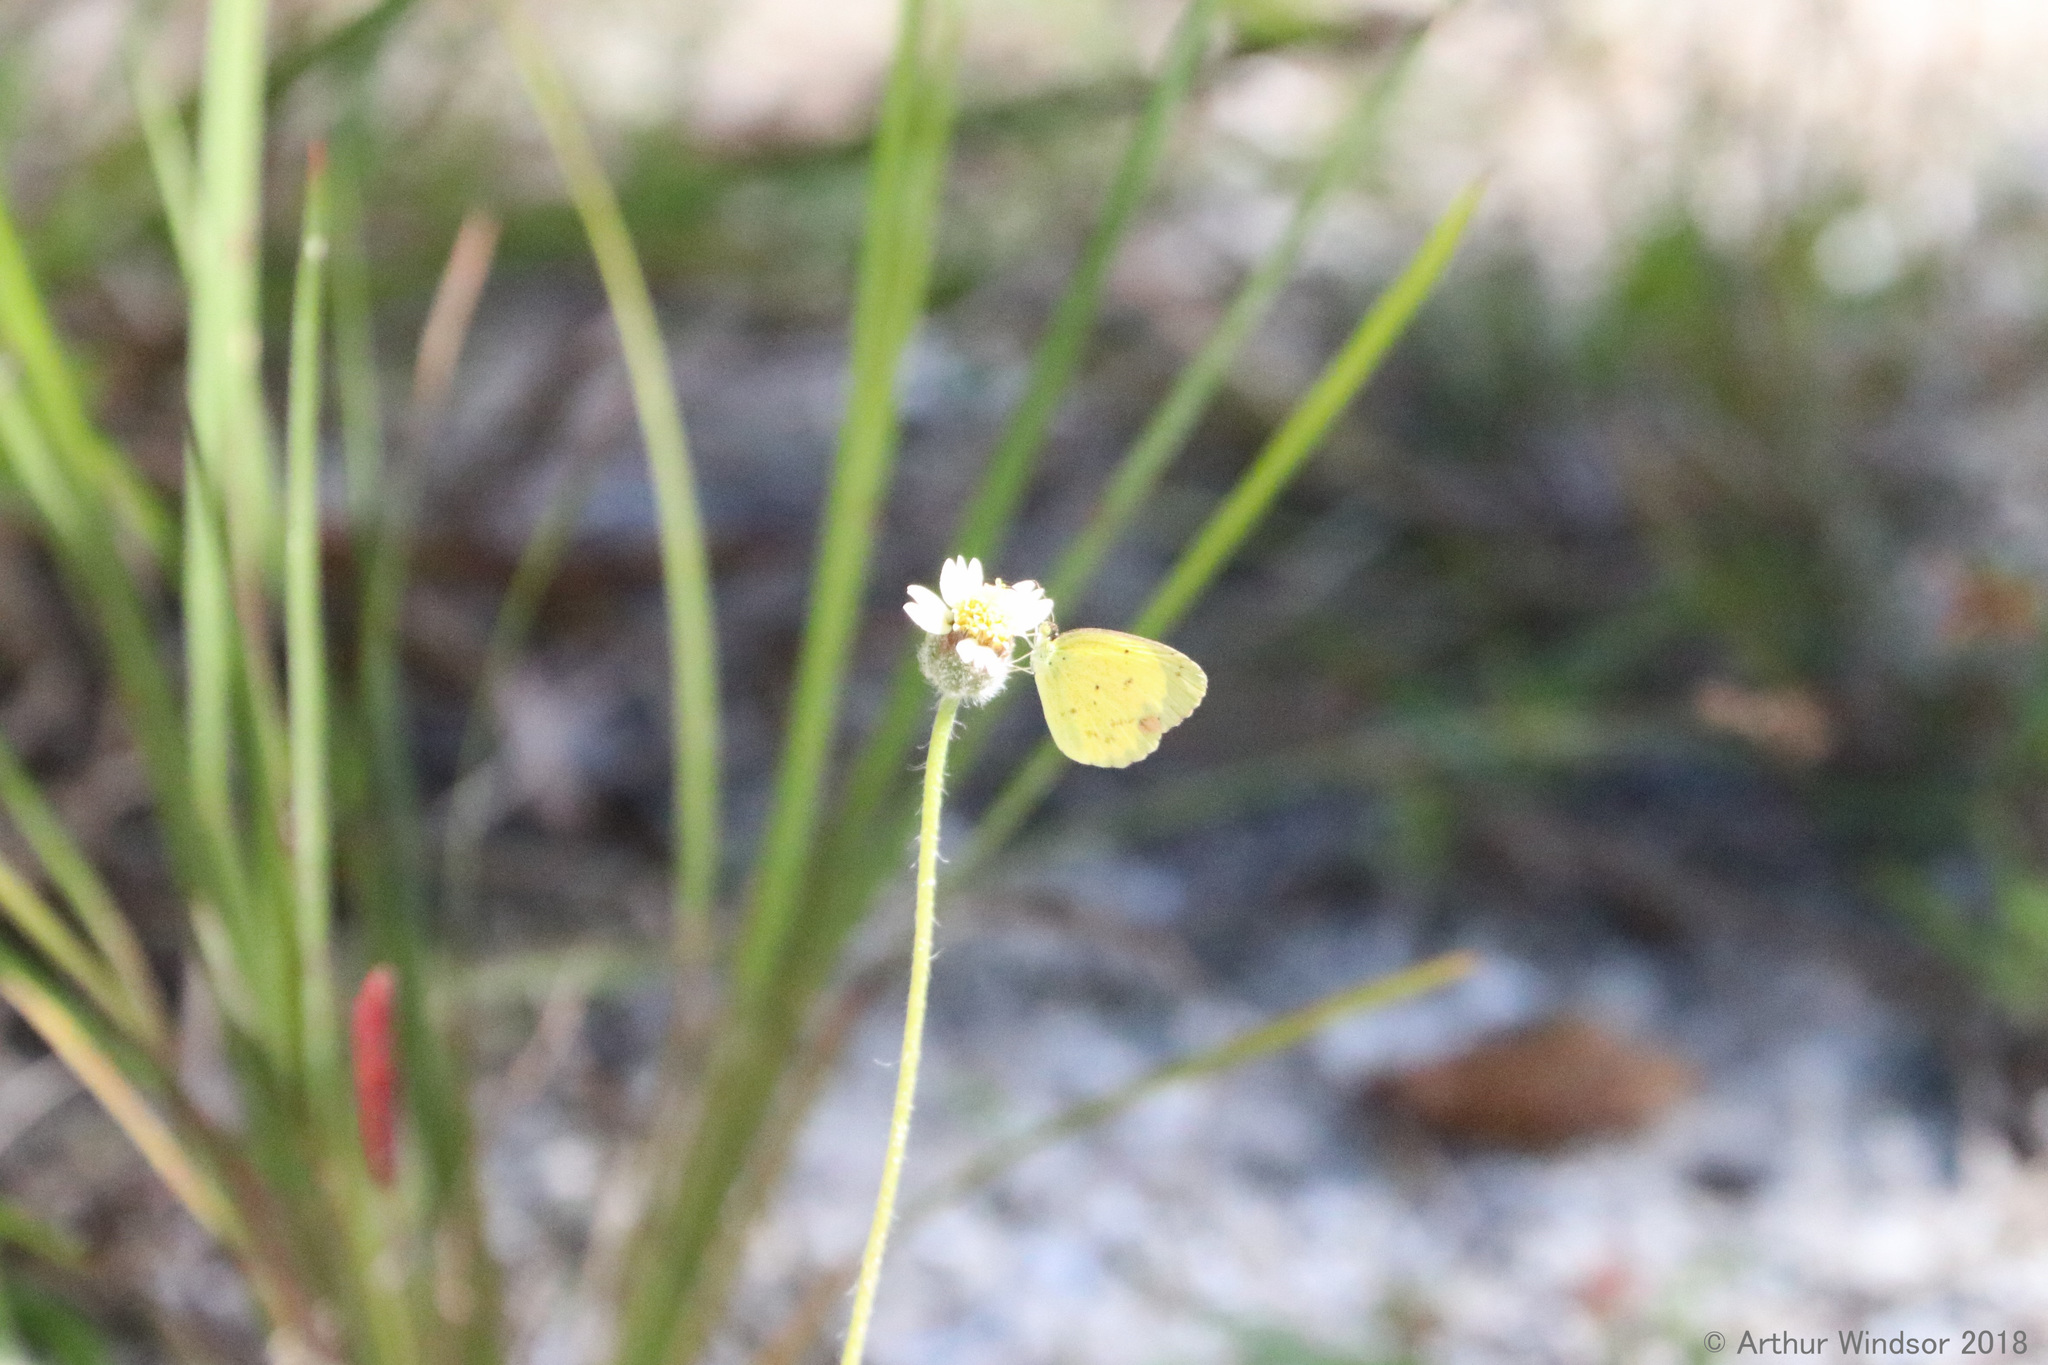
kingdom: Animalia
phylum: Arthropoda
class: Insecta
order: Lepidoptera
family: Pieridae
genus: Pyrisitia
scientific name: Pyrisitia lisa
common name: Little yellow
